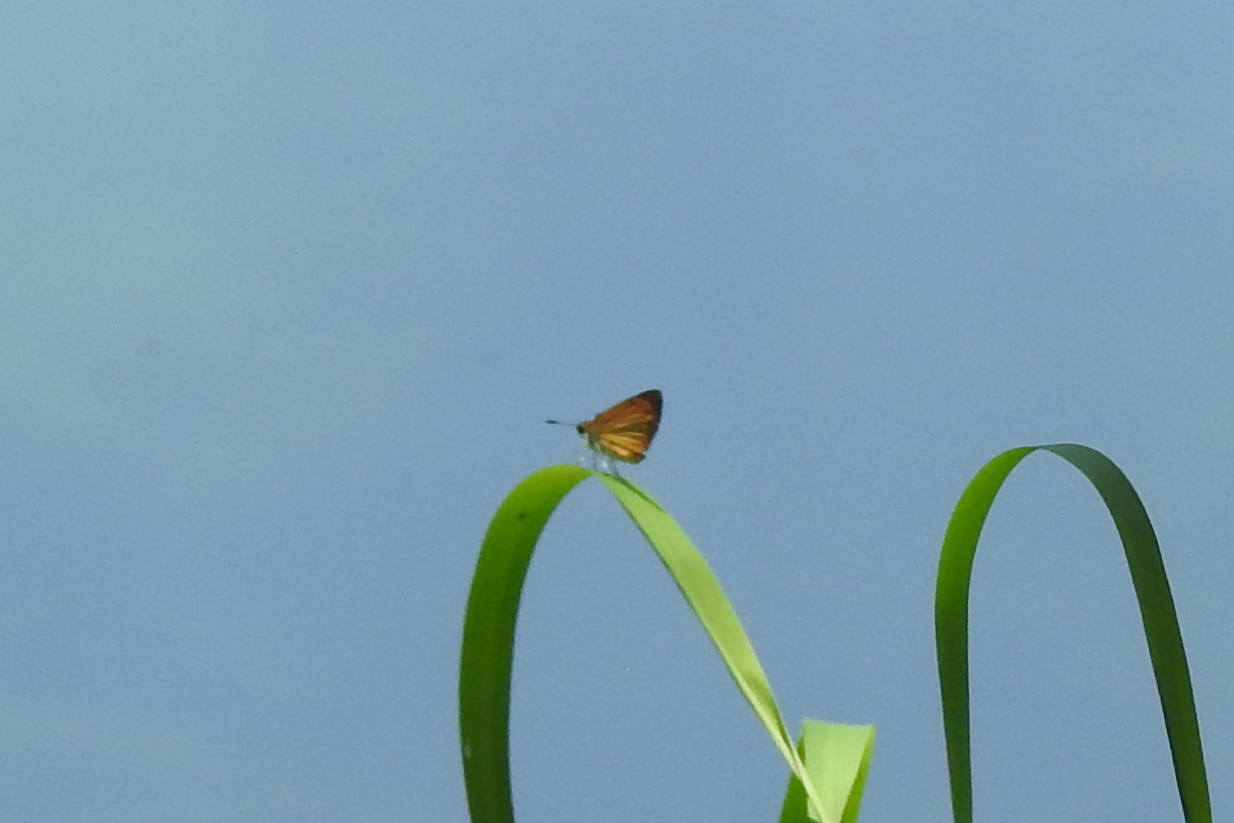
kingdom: Animalia
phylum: Arthropoda
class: Insecta
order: Lepidoptera
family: Hesperiidae
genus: Ancyloxypha
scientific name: Ancyloxypha numitor
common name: Least skipper
